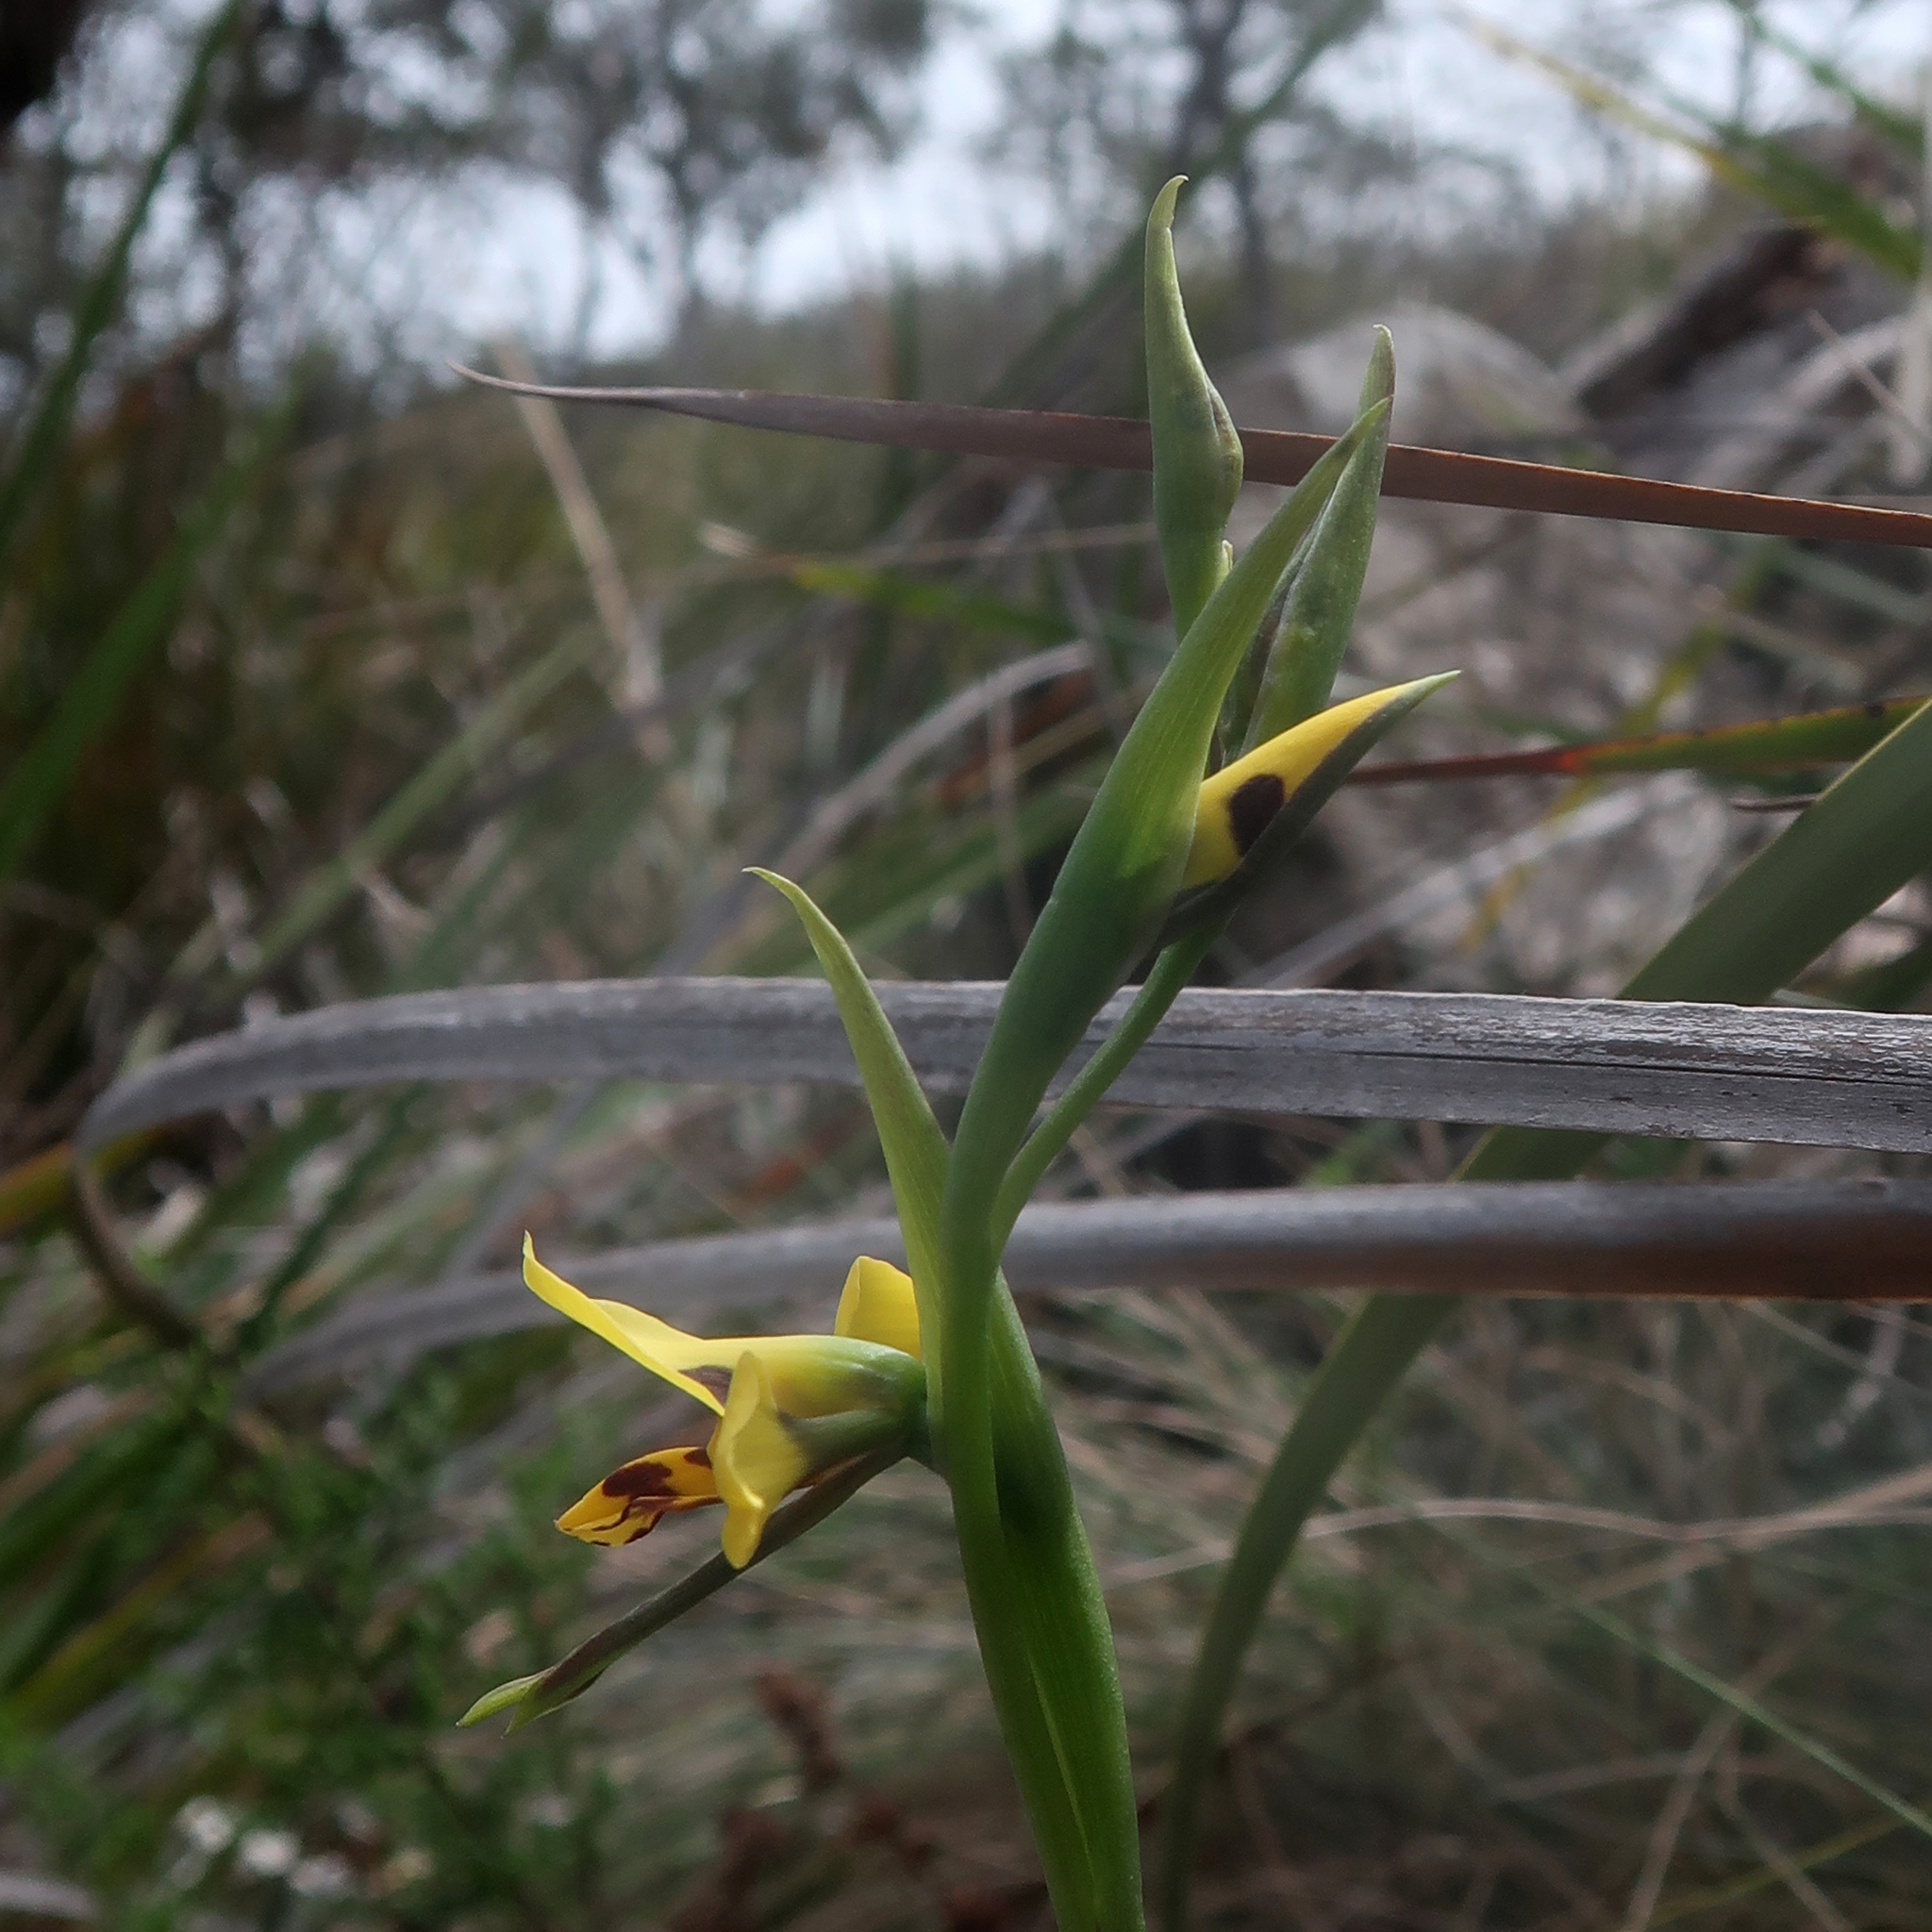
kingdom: Plantae
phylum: Tracheophyta
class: Liliopsida
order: Asparagales
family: Orchidaceae
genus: Diuris
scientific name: Diuris sulphurea
